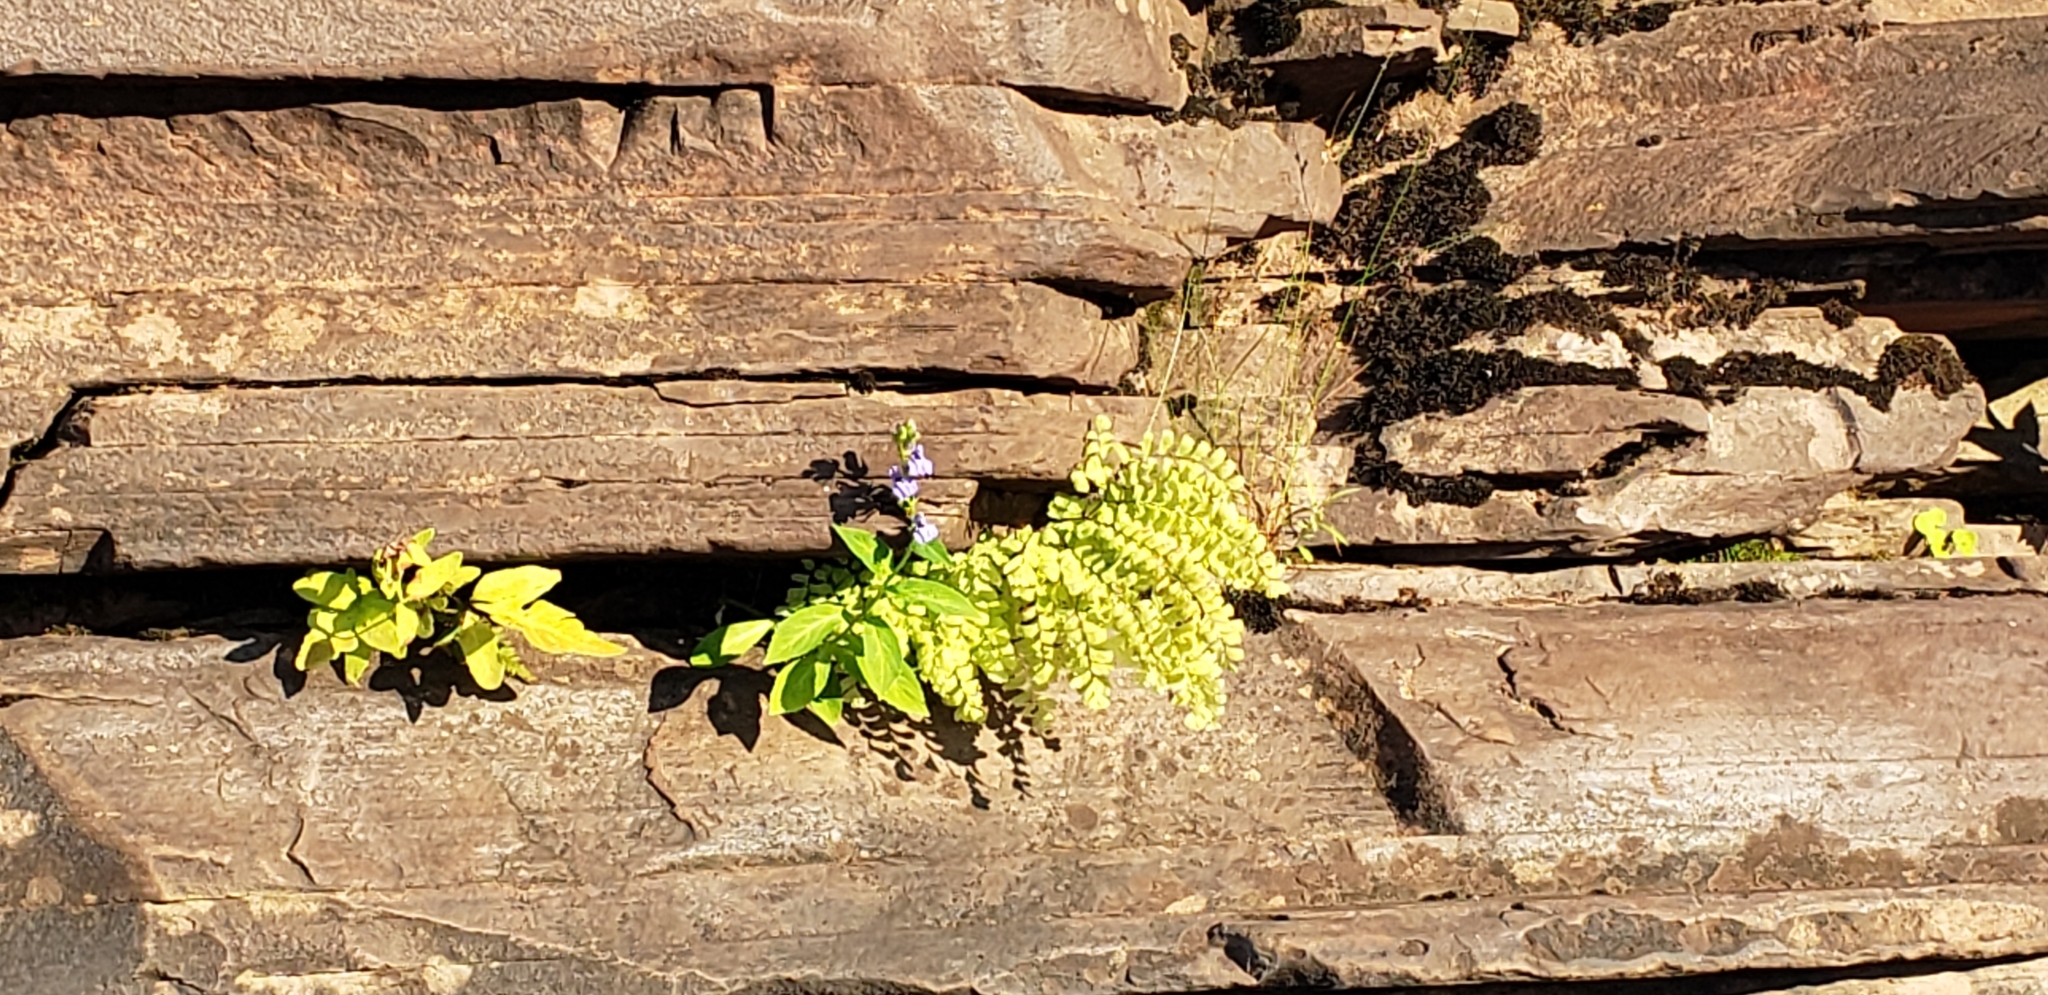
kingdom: Plantae
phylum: Tracheophyta
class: Polypodiopsida
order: Polypodiales
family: Aspleniaceae
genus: Asplenium
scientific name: Asplenium trichomanes
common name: Maidenhair spleenwort
